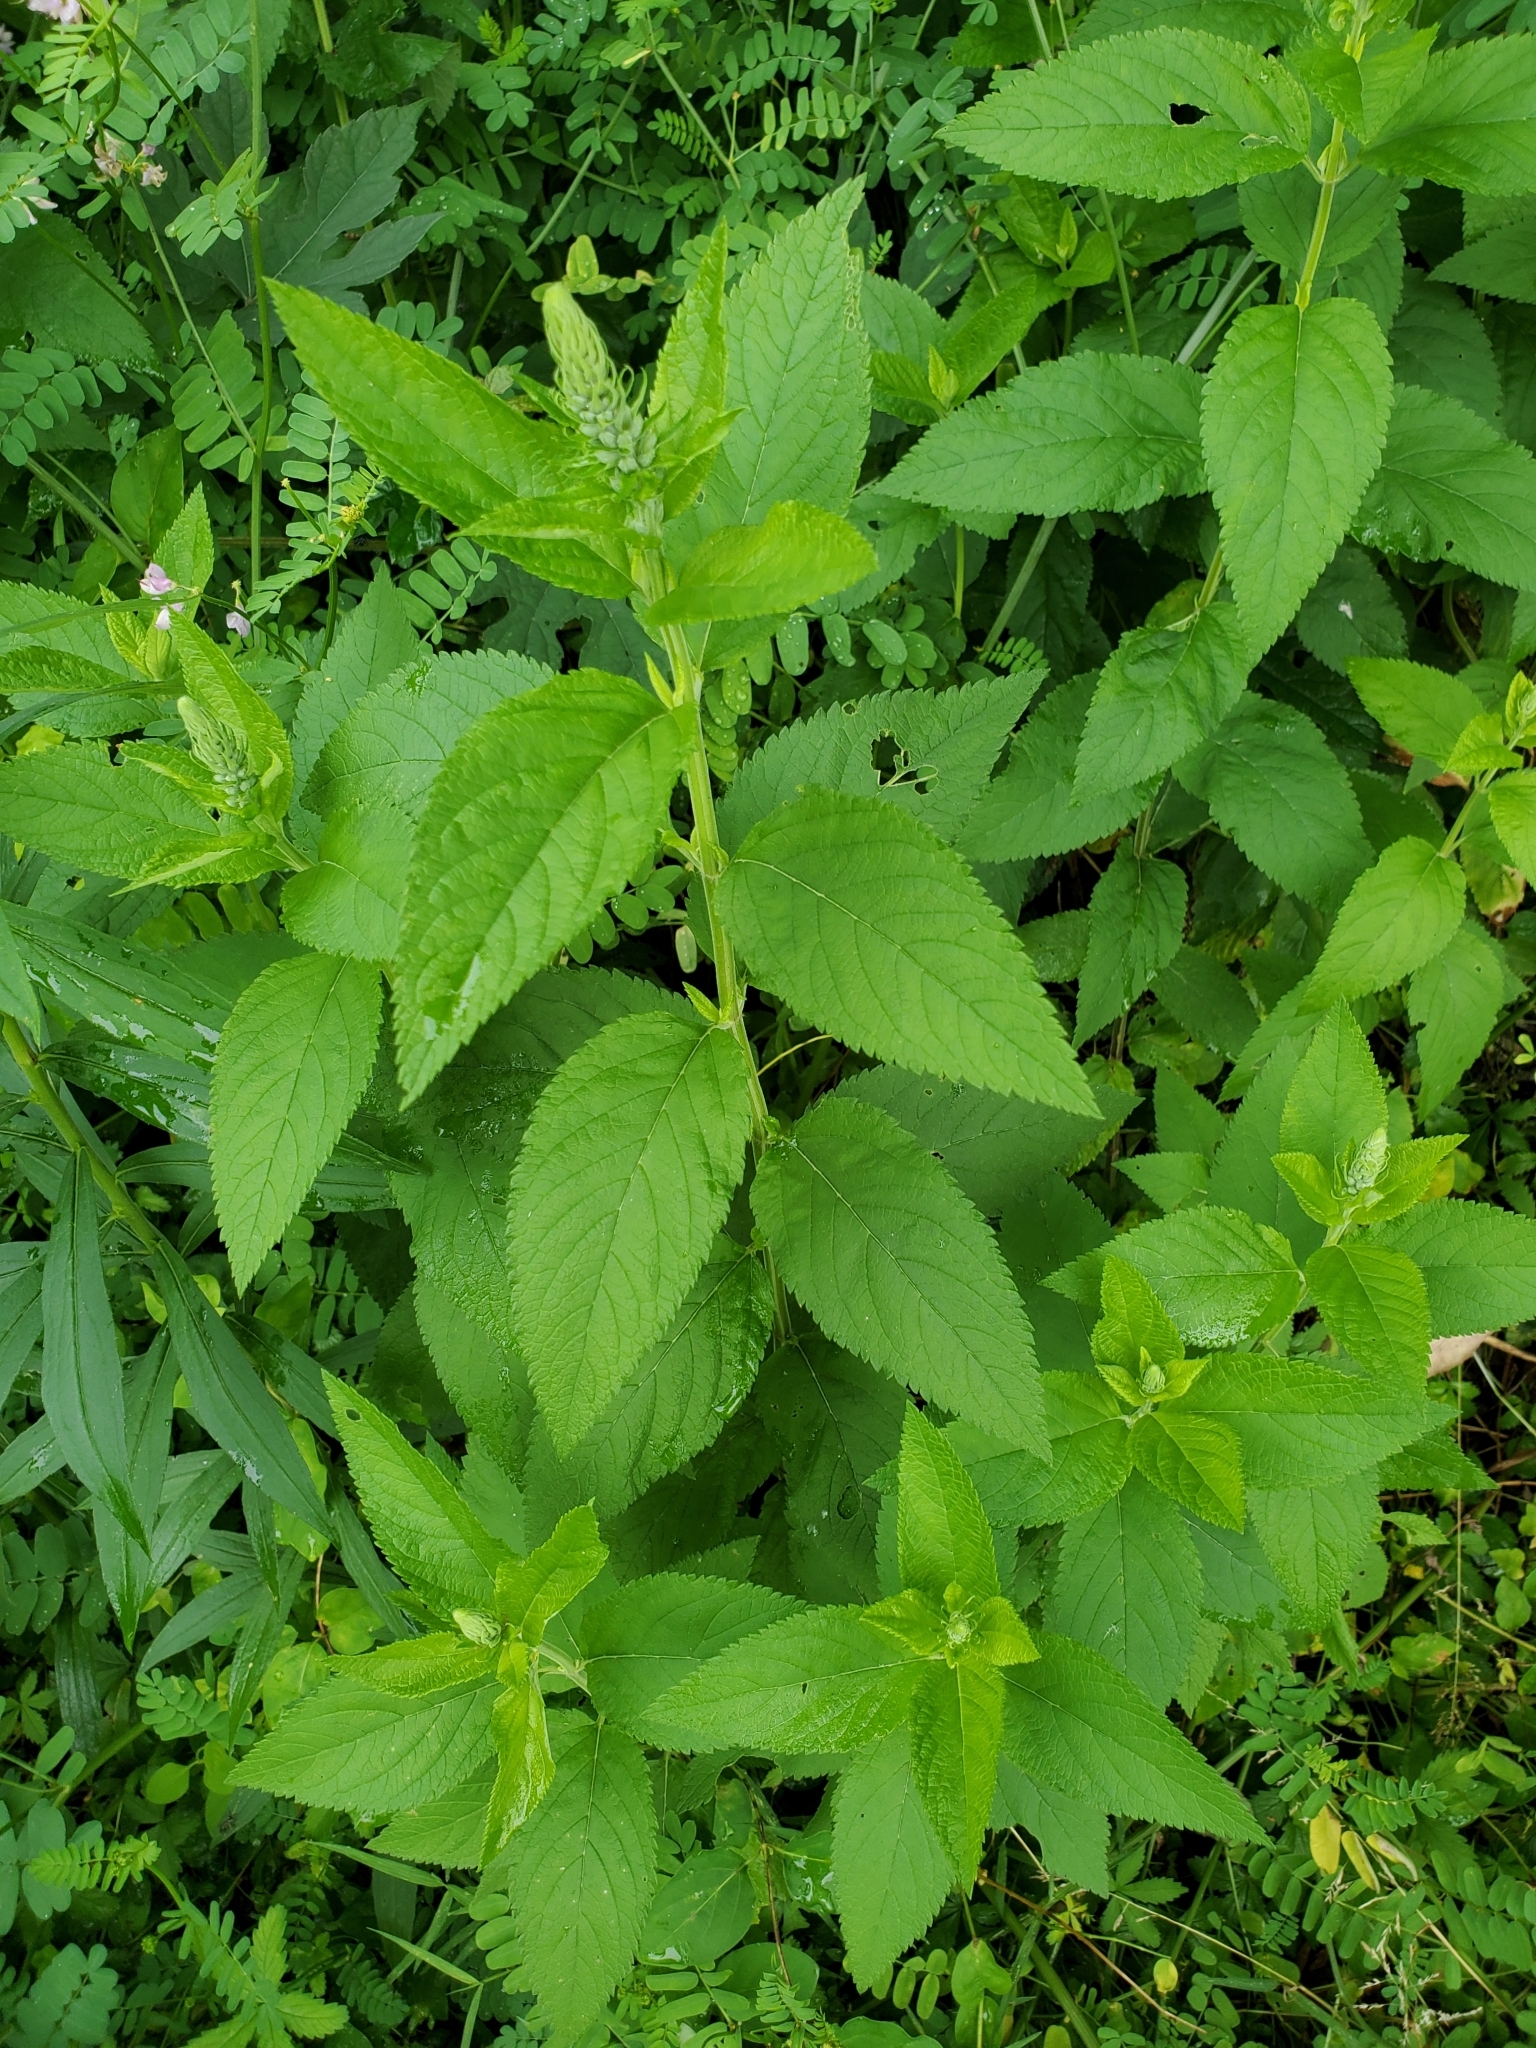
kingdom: Plantae
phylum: Tracheophyta
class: Magnoliopsida
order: Lamiales
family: Lamiaceae
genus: Teucrium
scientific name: Teucrium canadense
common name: American germander
